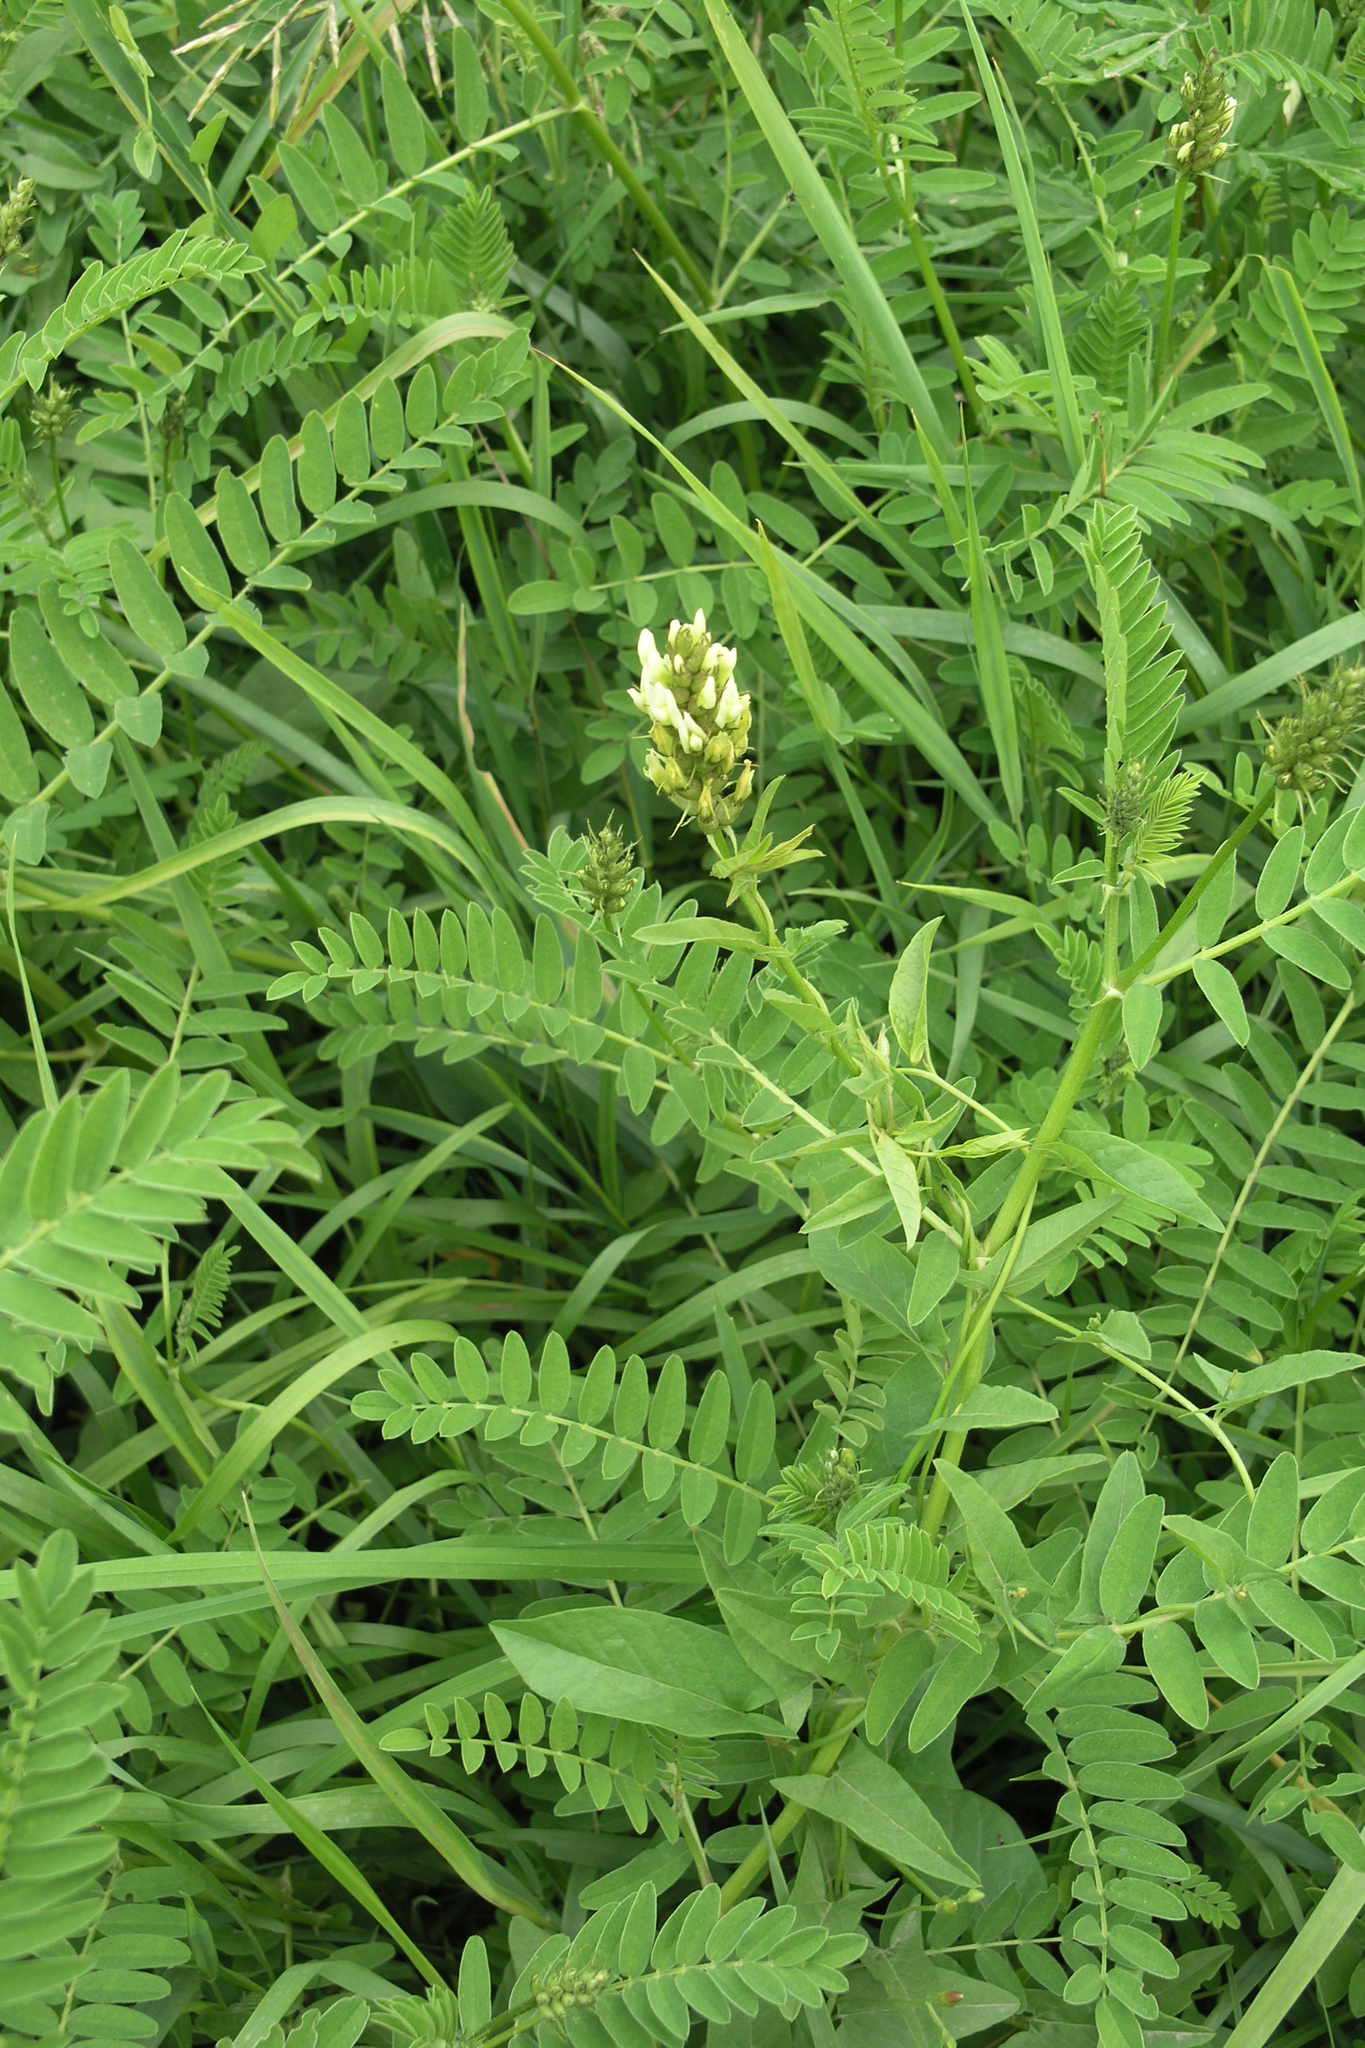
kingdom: Plantae
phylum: Tracheophyta
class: Magnoliopsida
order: Fabales
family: Fabaceae
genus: Astragalus
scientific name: Astragalus cicer
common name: Chick-pea milk-vetch
